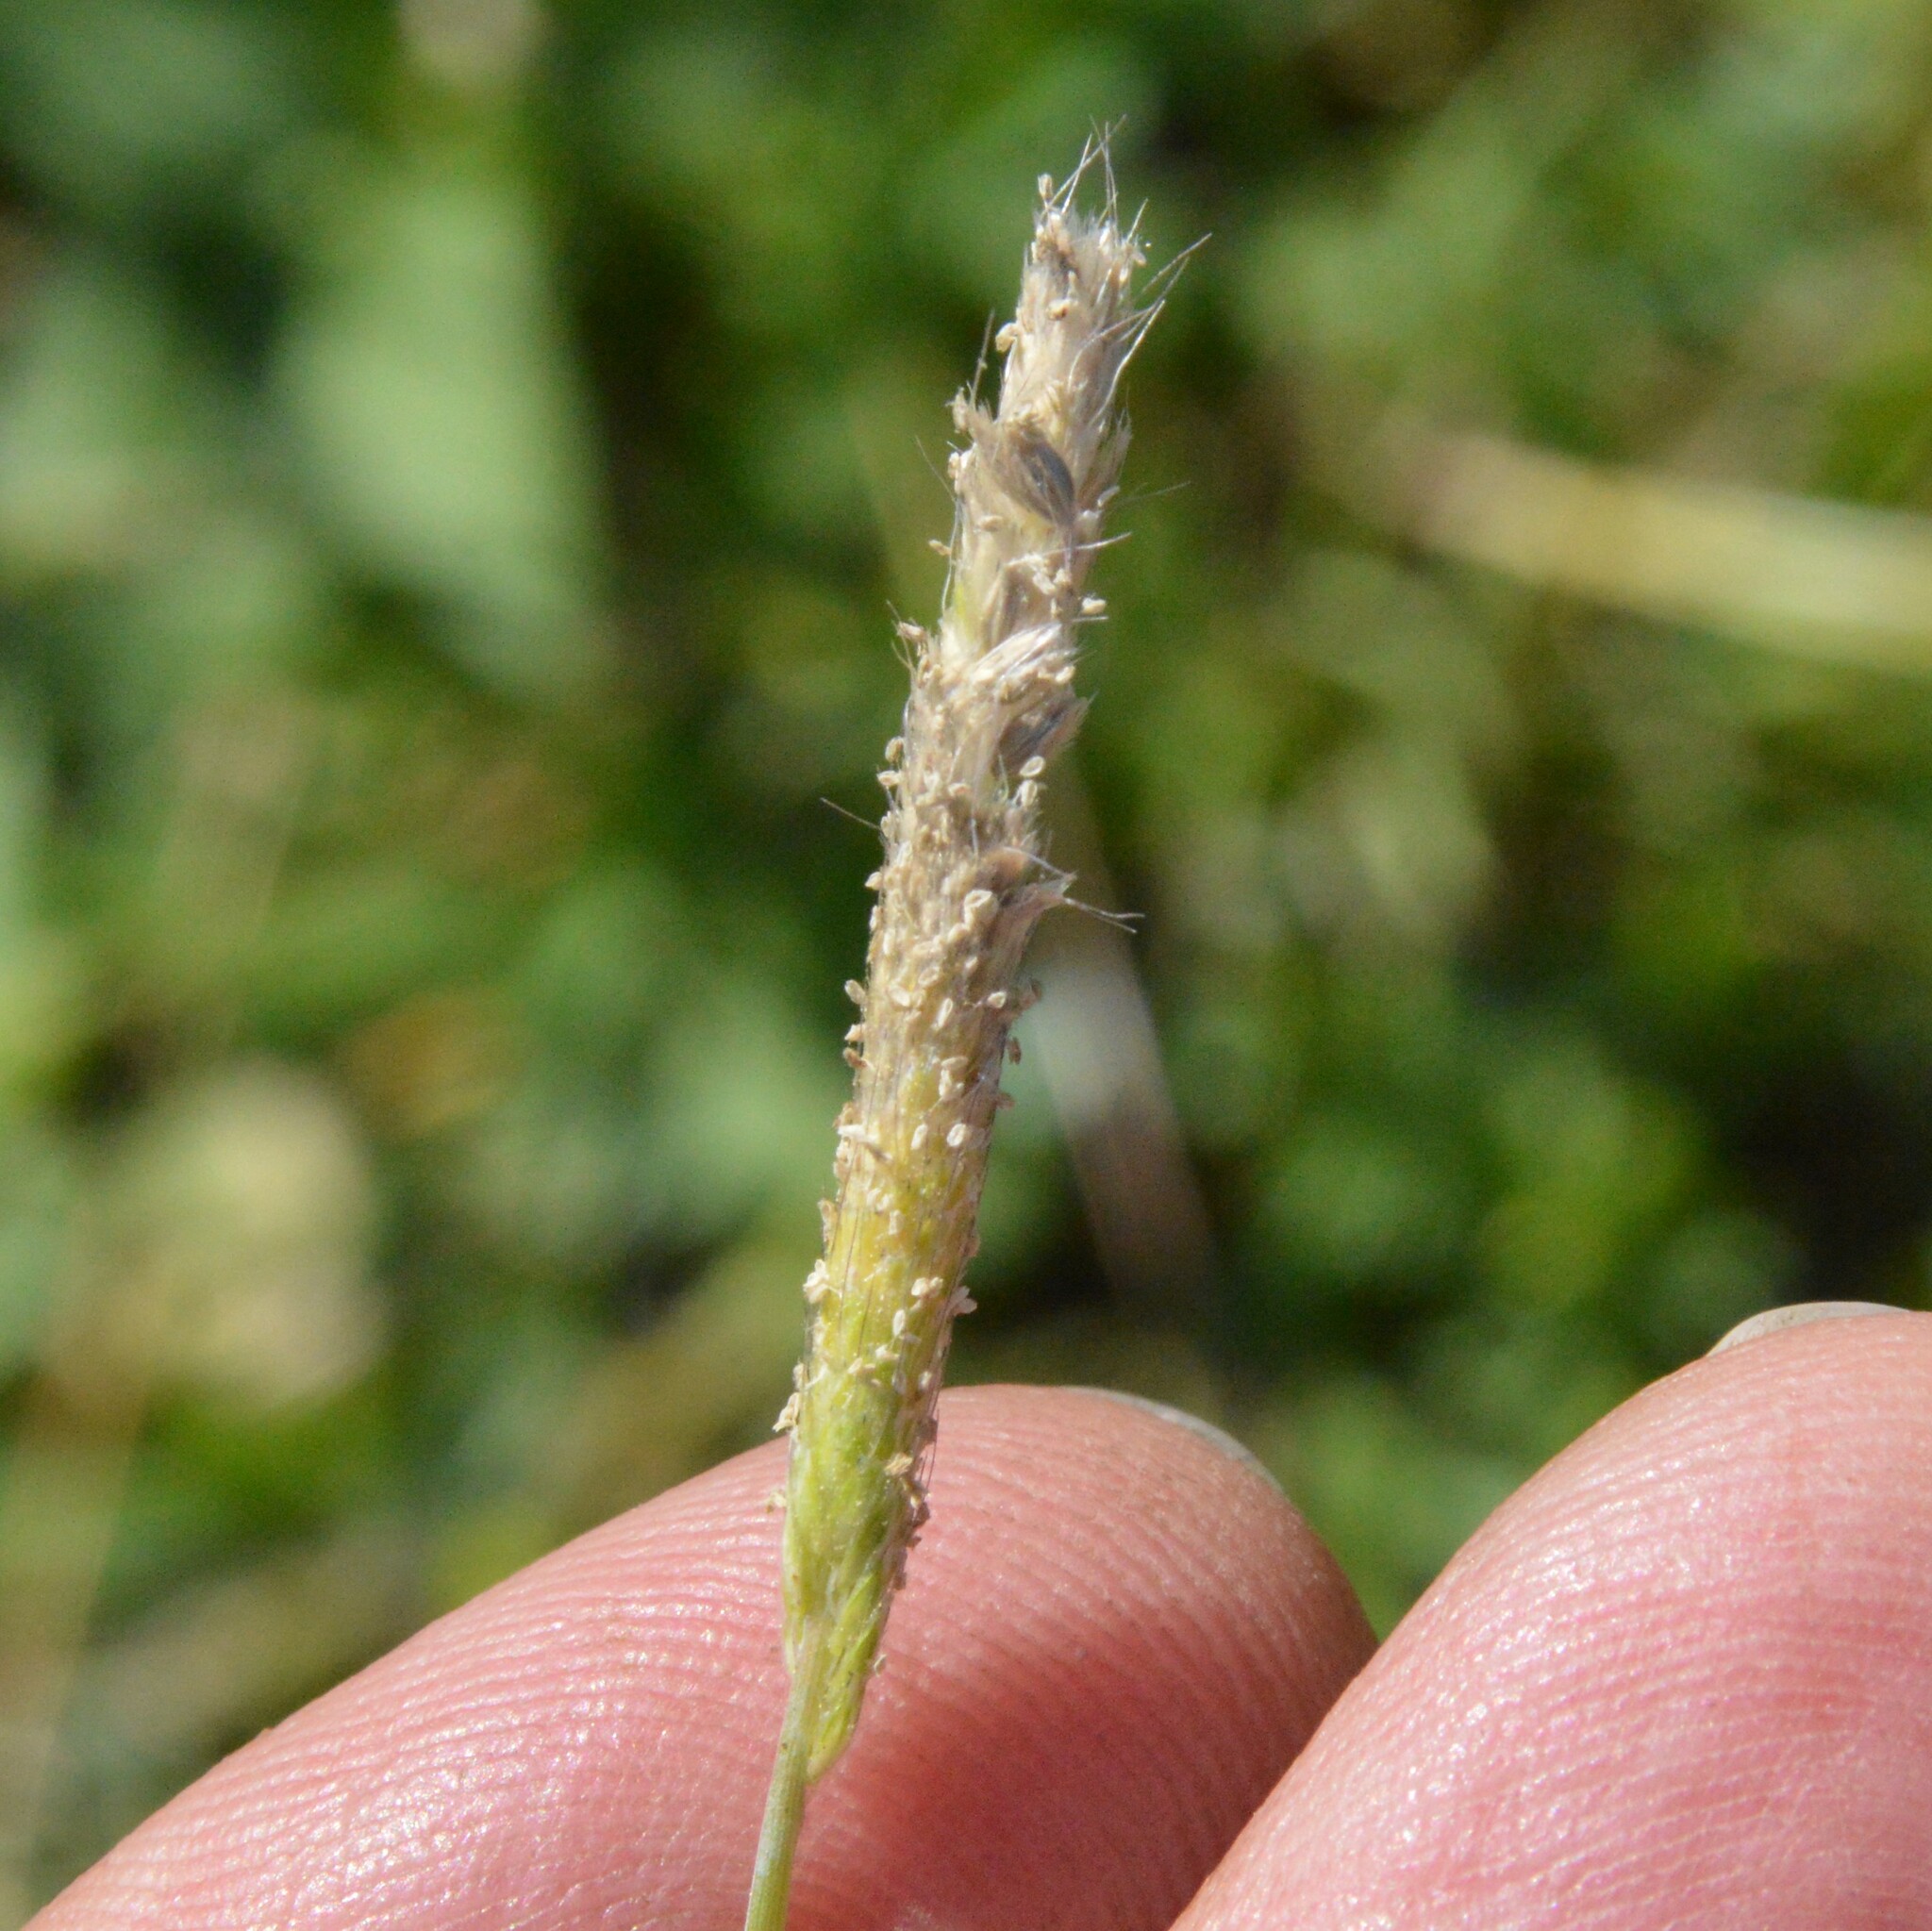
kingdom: Plantae
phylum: Tracheophyta
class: Liliopsida
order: Poales
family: Poaceae
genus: Alopecurus
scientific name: Alopecurus carolinianus
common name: Tufted foxtail
